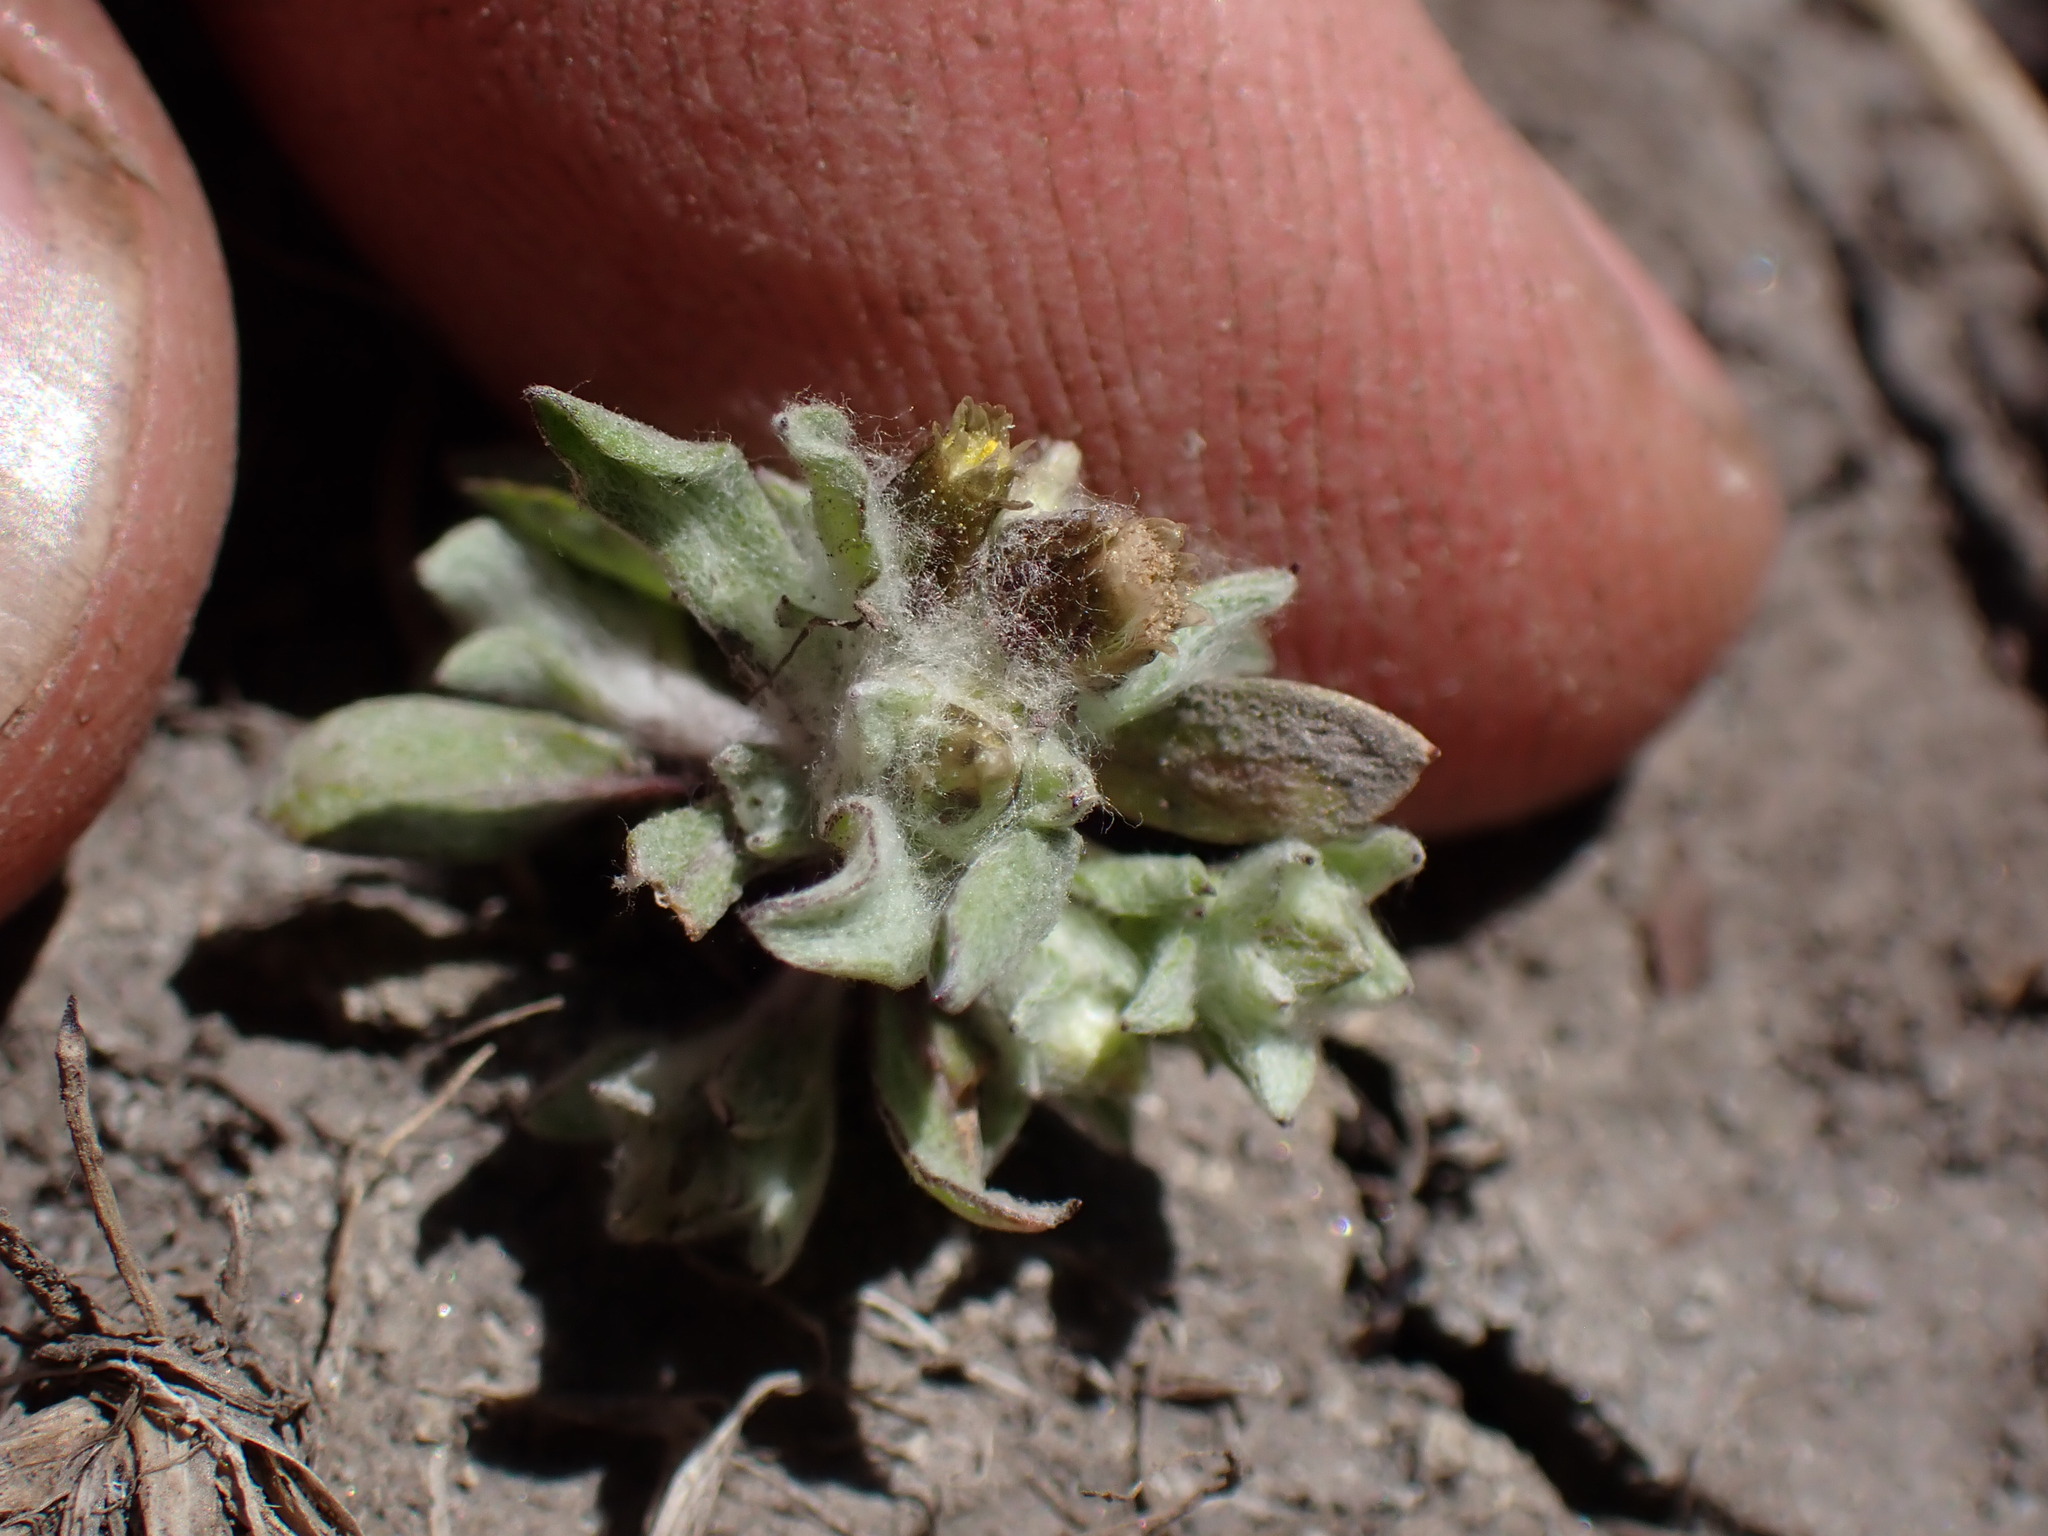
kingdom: Plantae
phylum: Tracheophyta
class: Magnoliopsida
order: Asterales
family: Asteraceae
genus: Gnaphalium
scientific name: Gnaphalium palustre
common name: Western marsh cudweed
